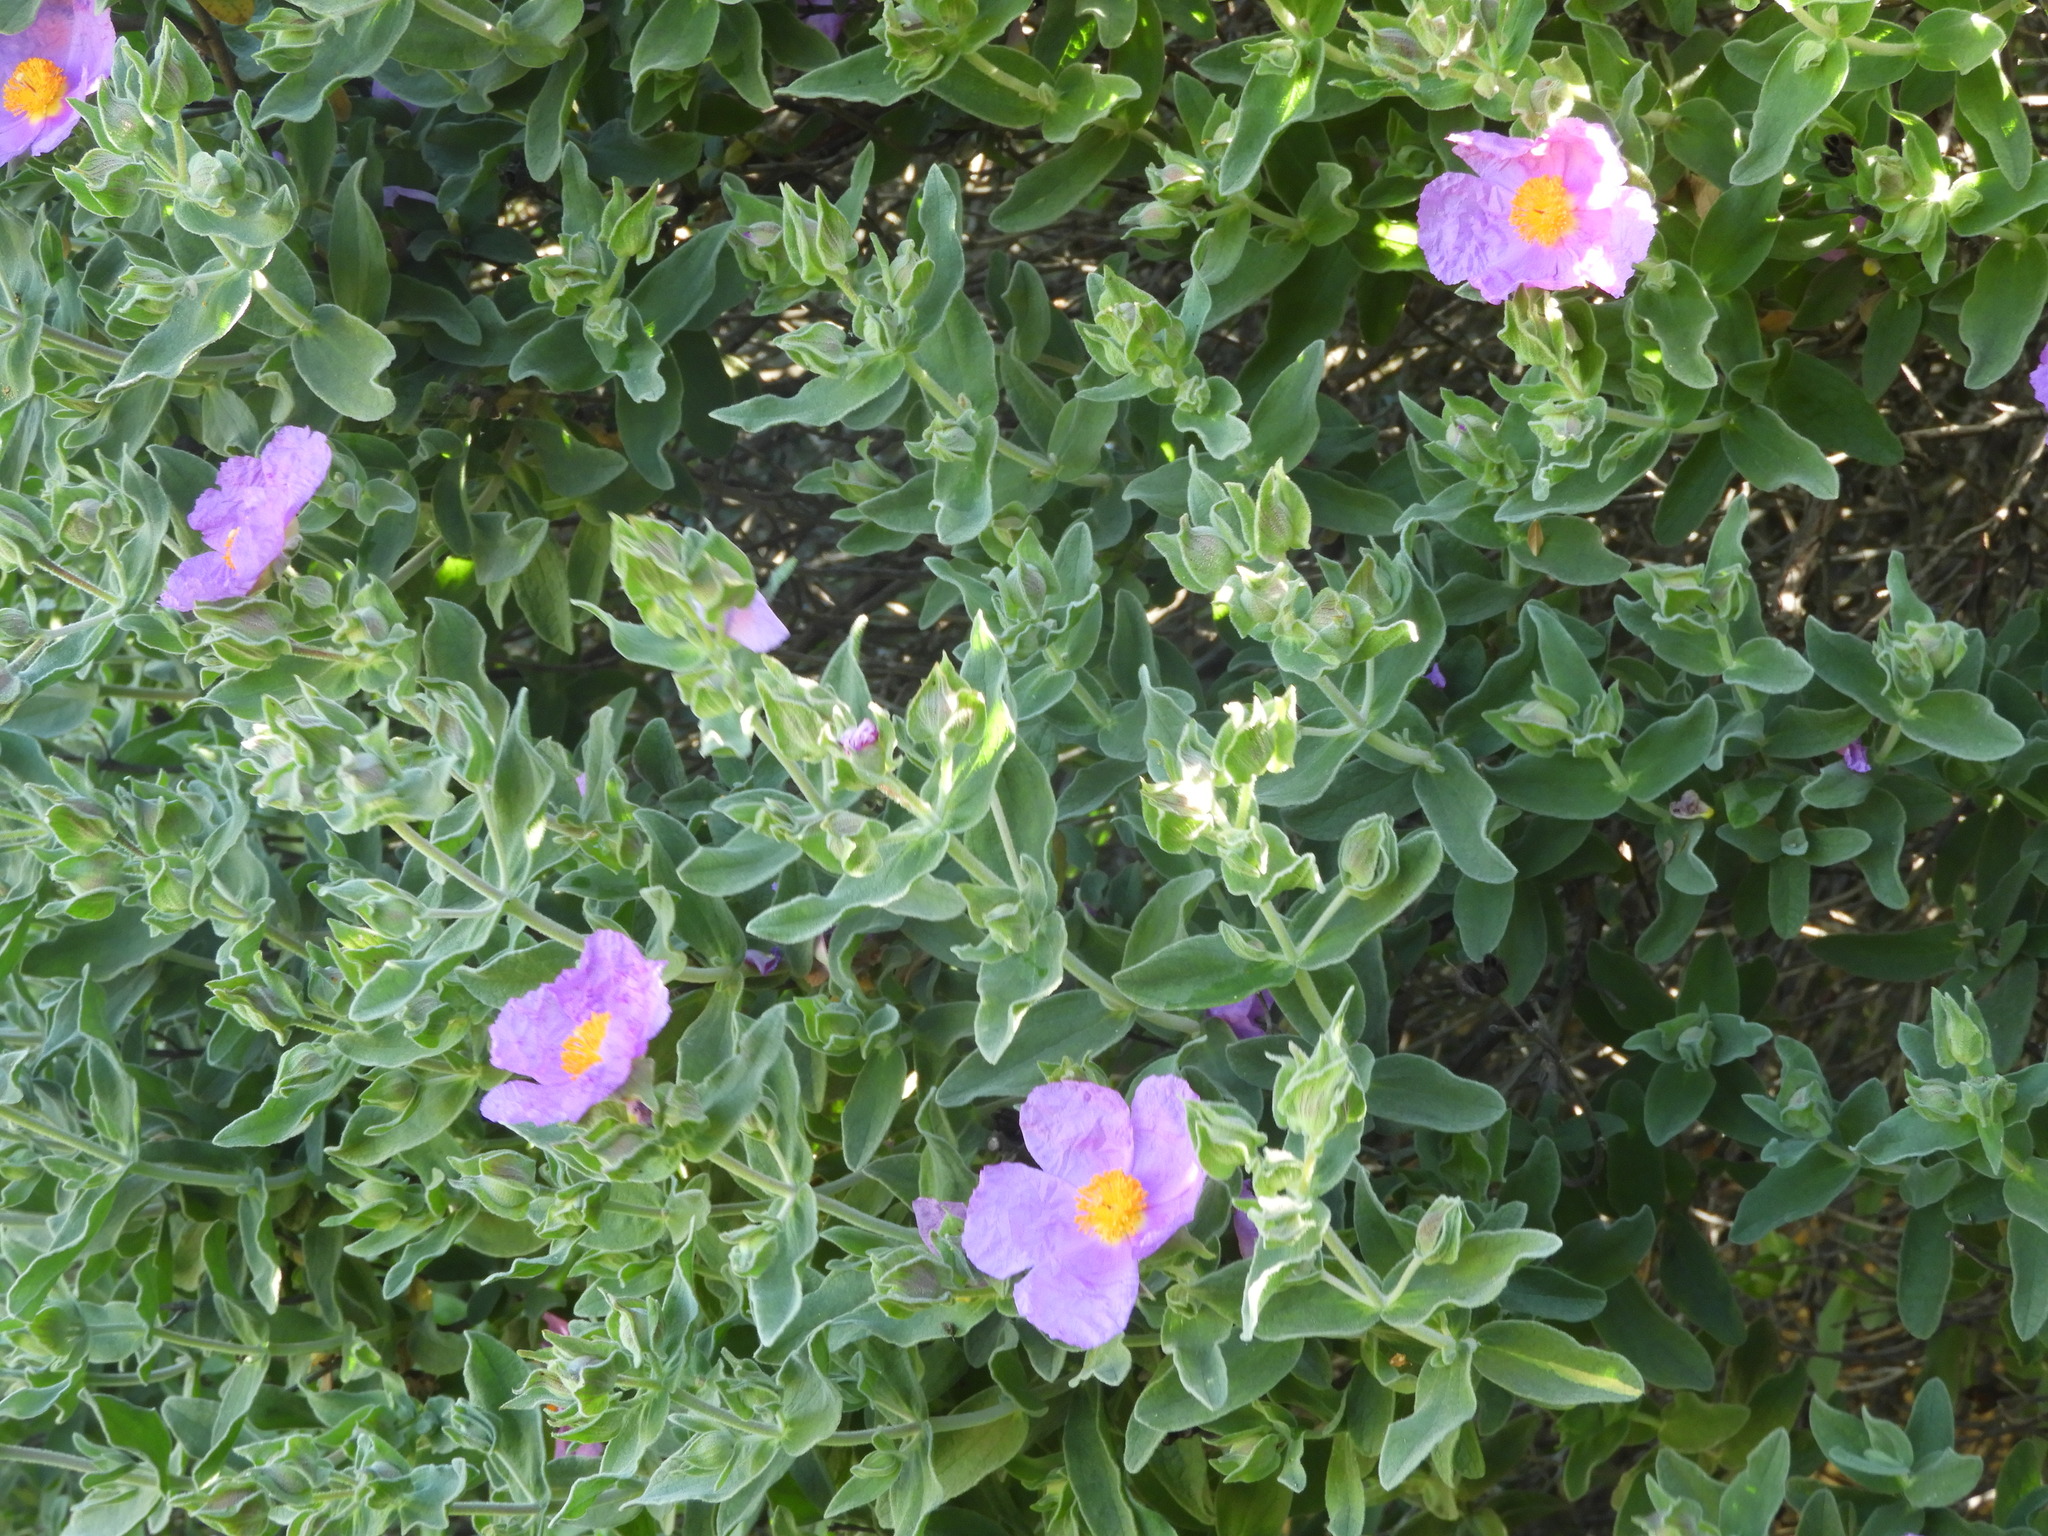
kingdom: Plantae
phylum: Tracheophyta
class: Magnoliopsida
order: Malvales
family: Cistaceae
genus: Cistus
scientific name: Cistus albidus
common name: White-leaf rock-rose
